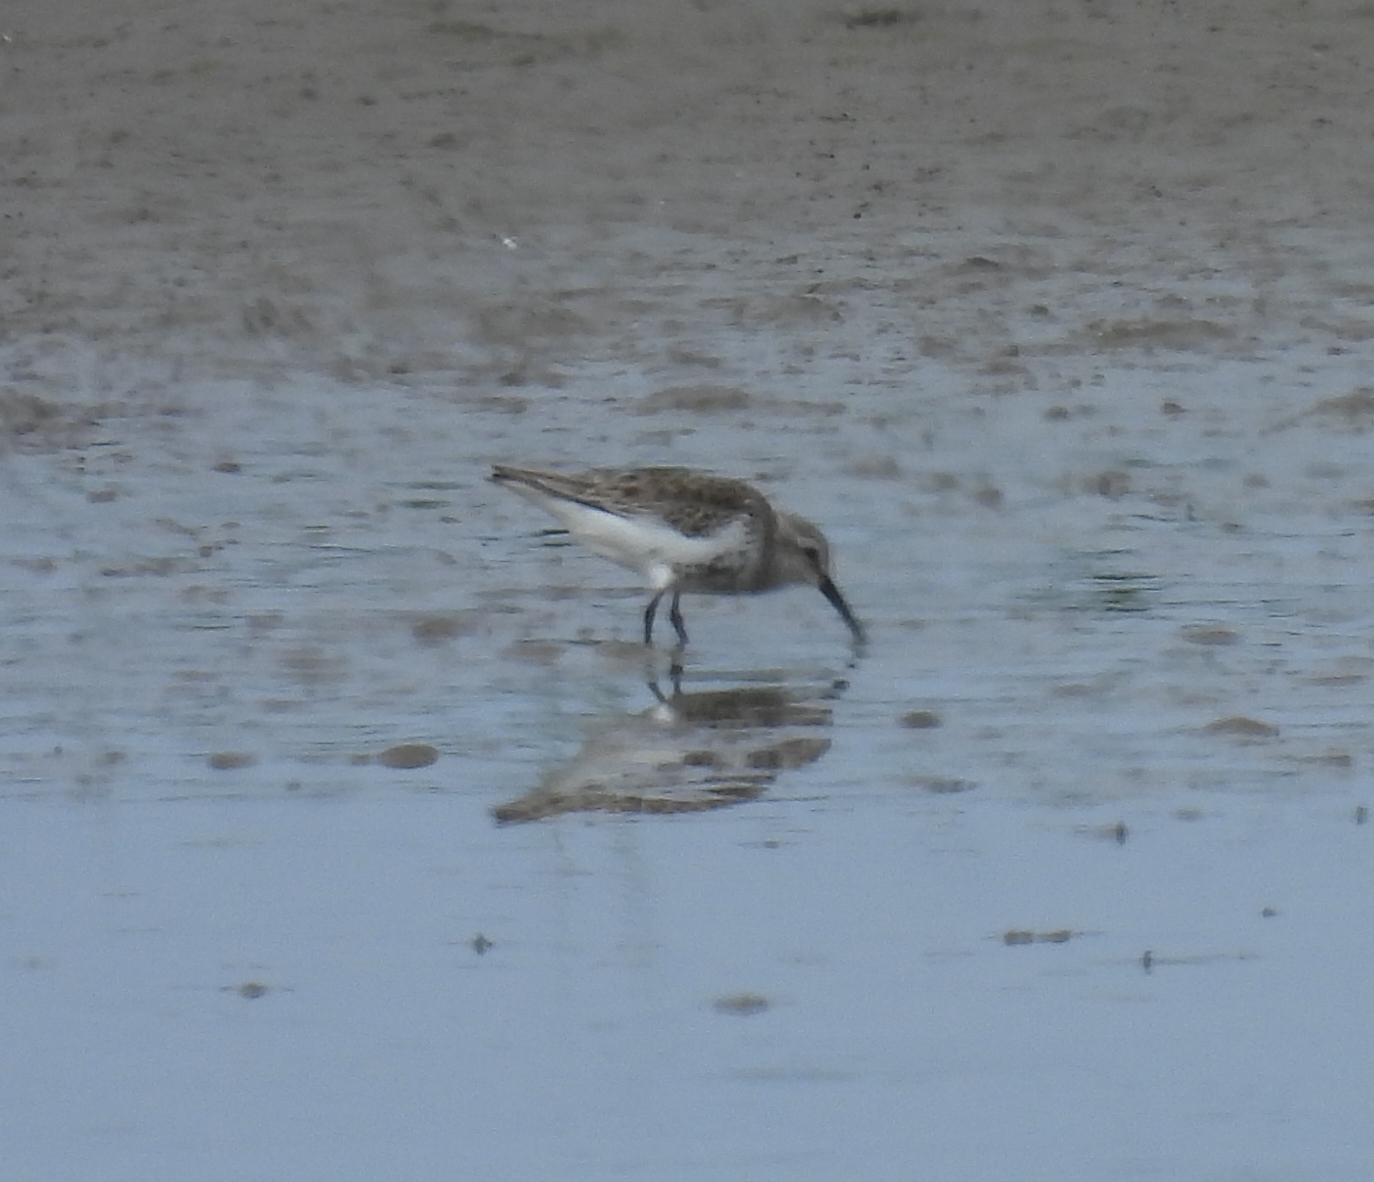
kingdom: Animalia
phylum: Chordata
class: Aves
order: Charadriiformes
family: Scolopacidae
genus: Calidris
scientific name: Calidris alpina
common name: Dunlin
